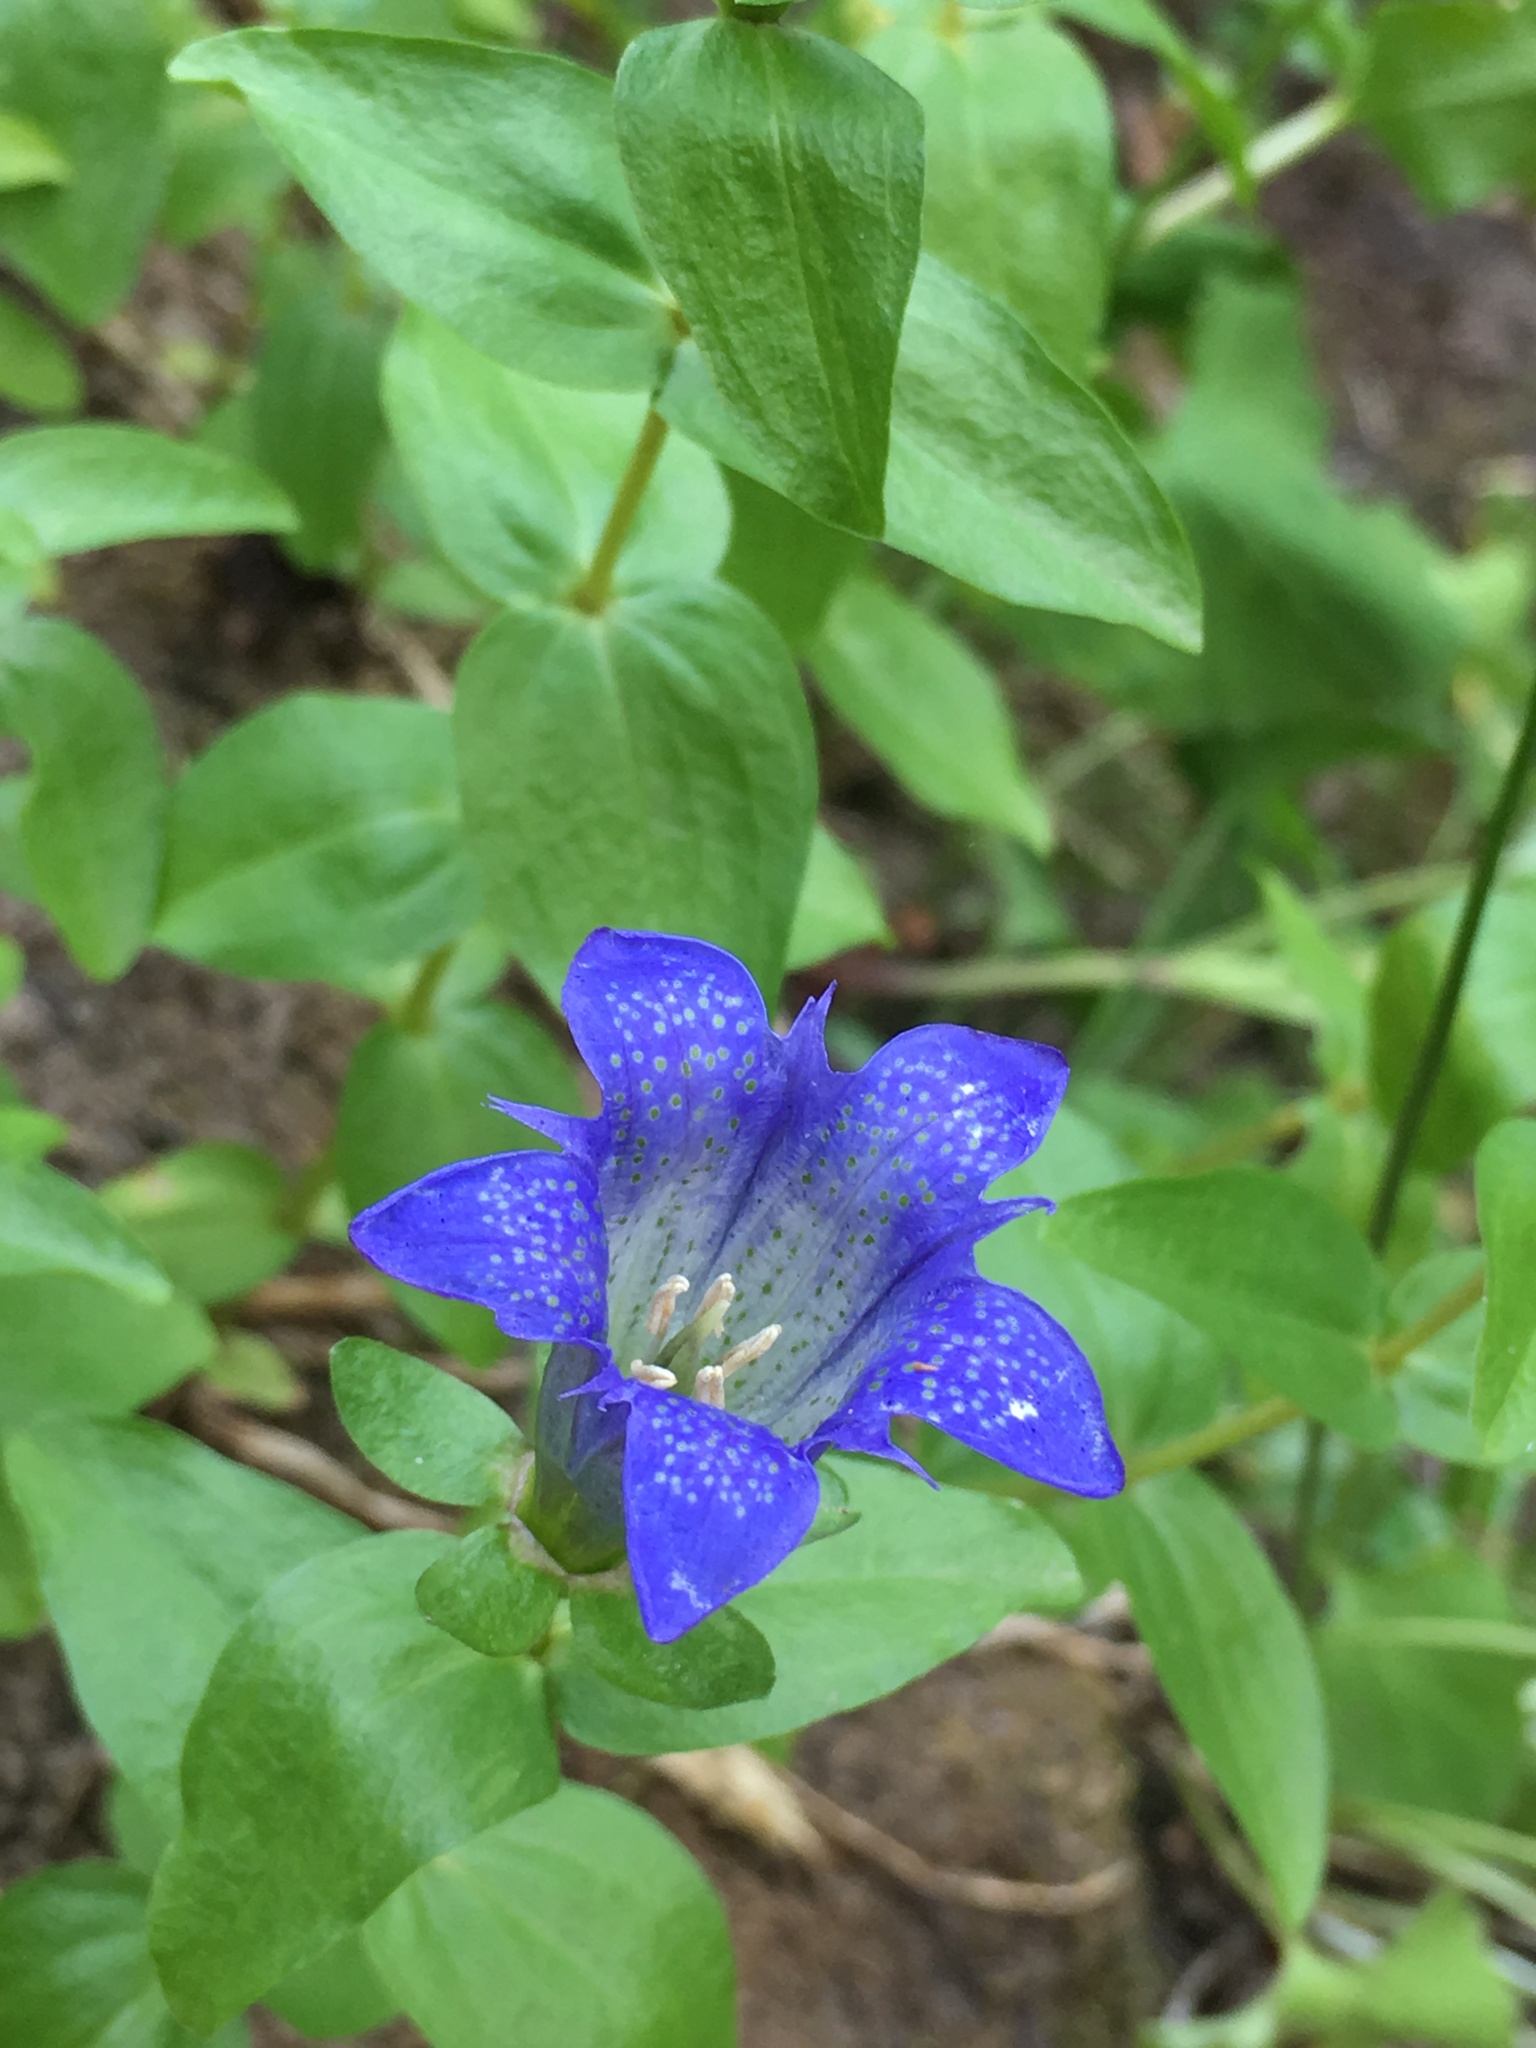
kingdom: Plantae
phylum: Tracheophyta
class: Magnoliopsida
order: Gentianales
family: Gentianaceae
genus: Gentiana
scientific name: Gentiana calycosa
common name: Rainier pleated gentian
